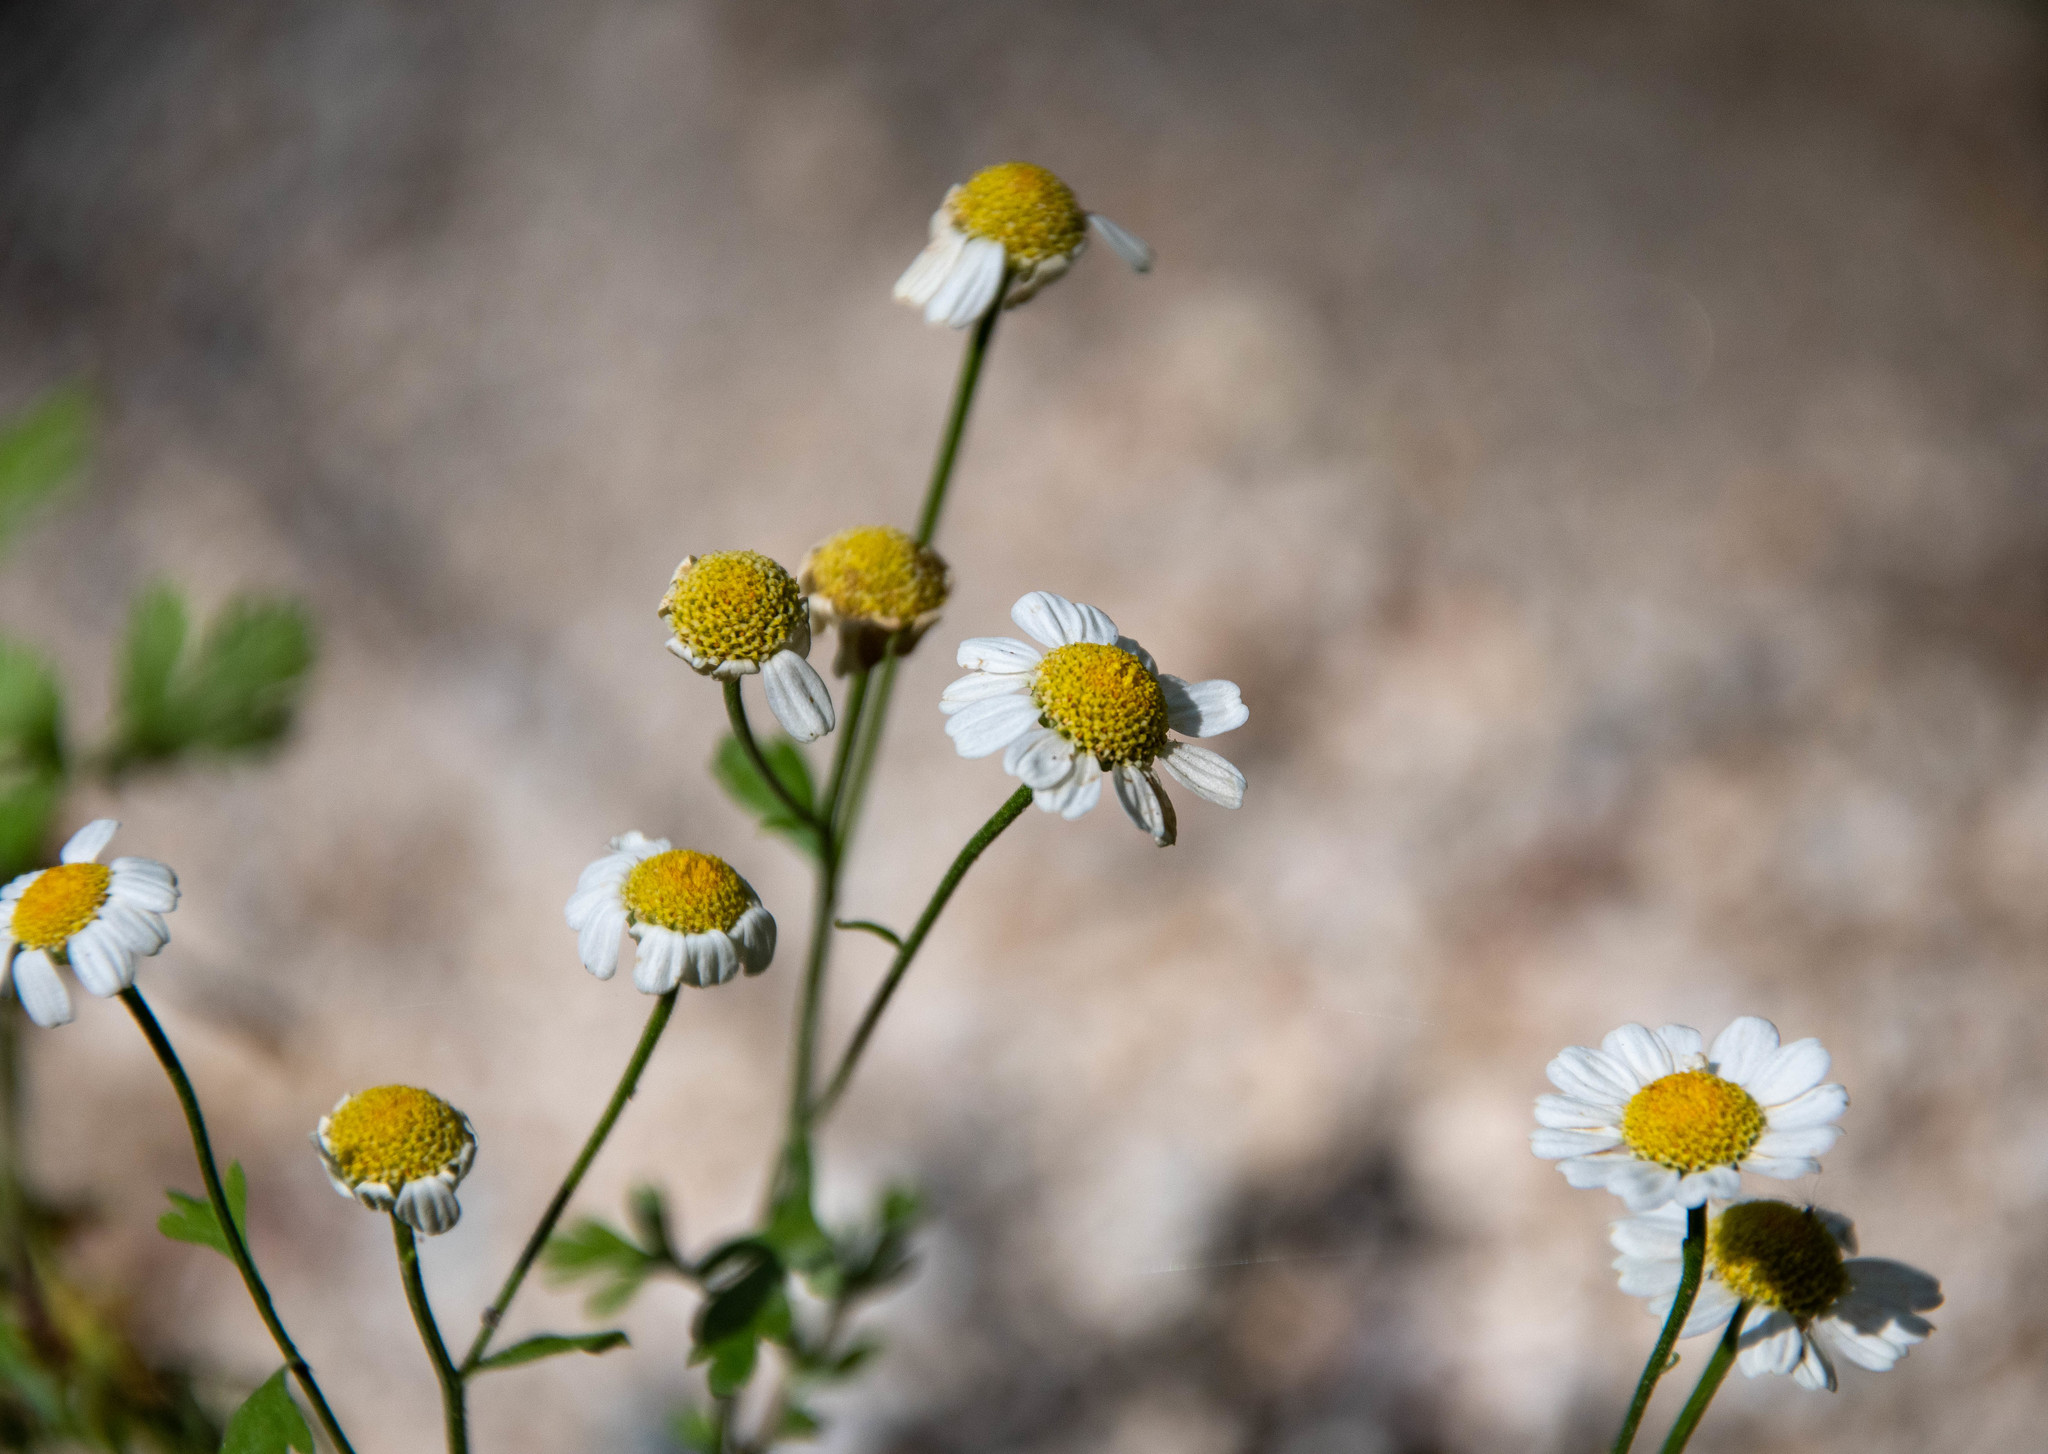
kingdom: Plantae
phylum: Tracheophyta
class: Magnoliopsida
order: Asterales
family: Asteraceae
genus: Tanacetum
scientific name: Tanacetum parthenium
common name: Feverfew
